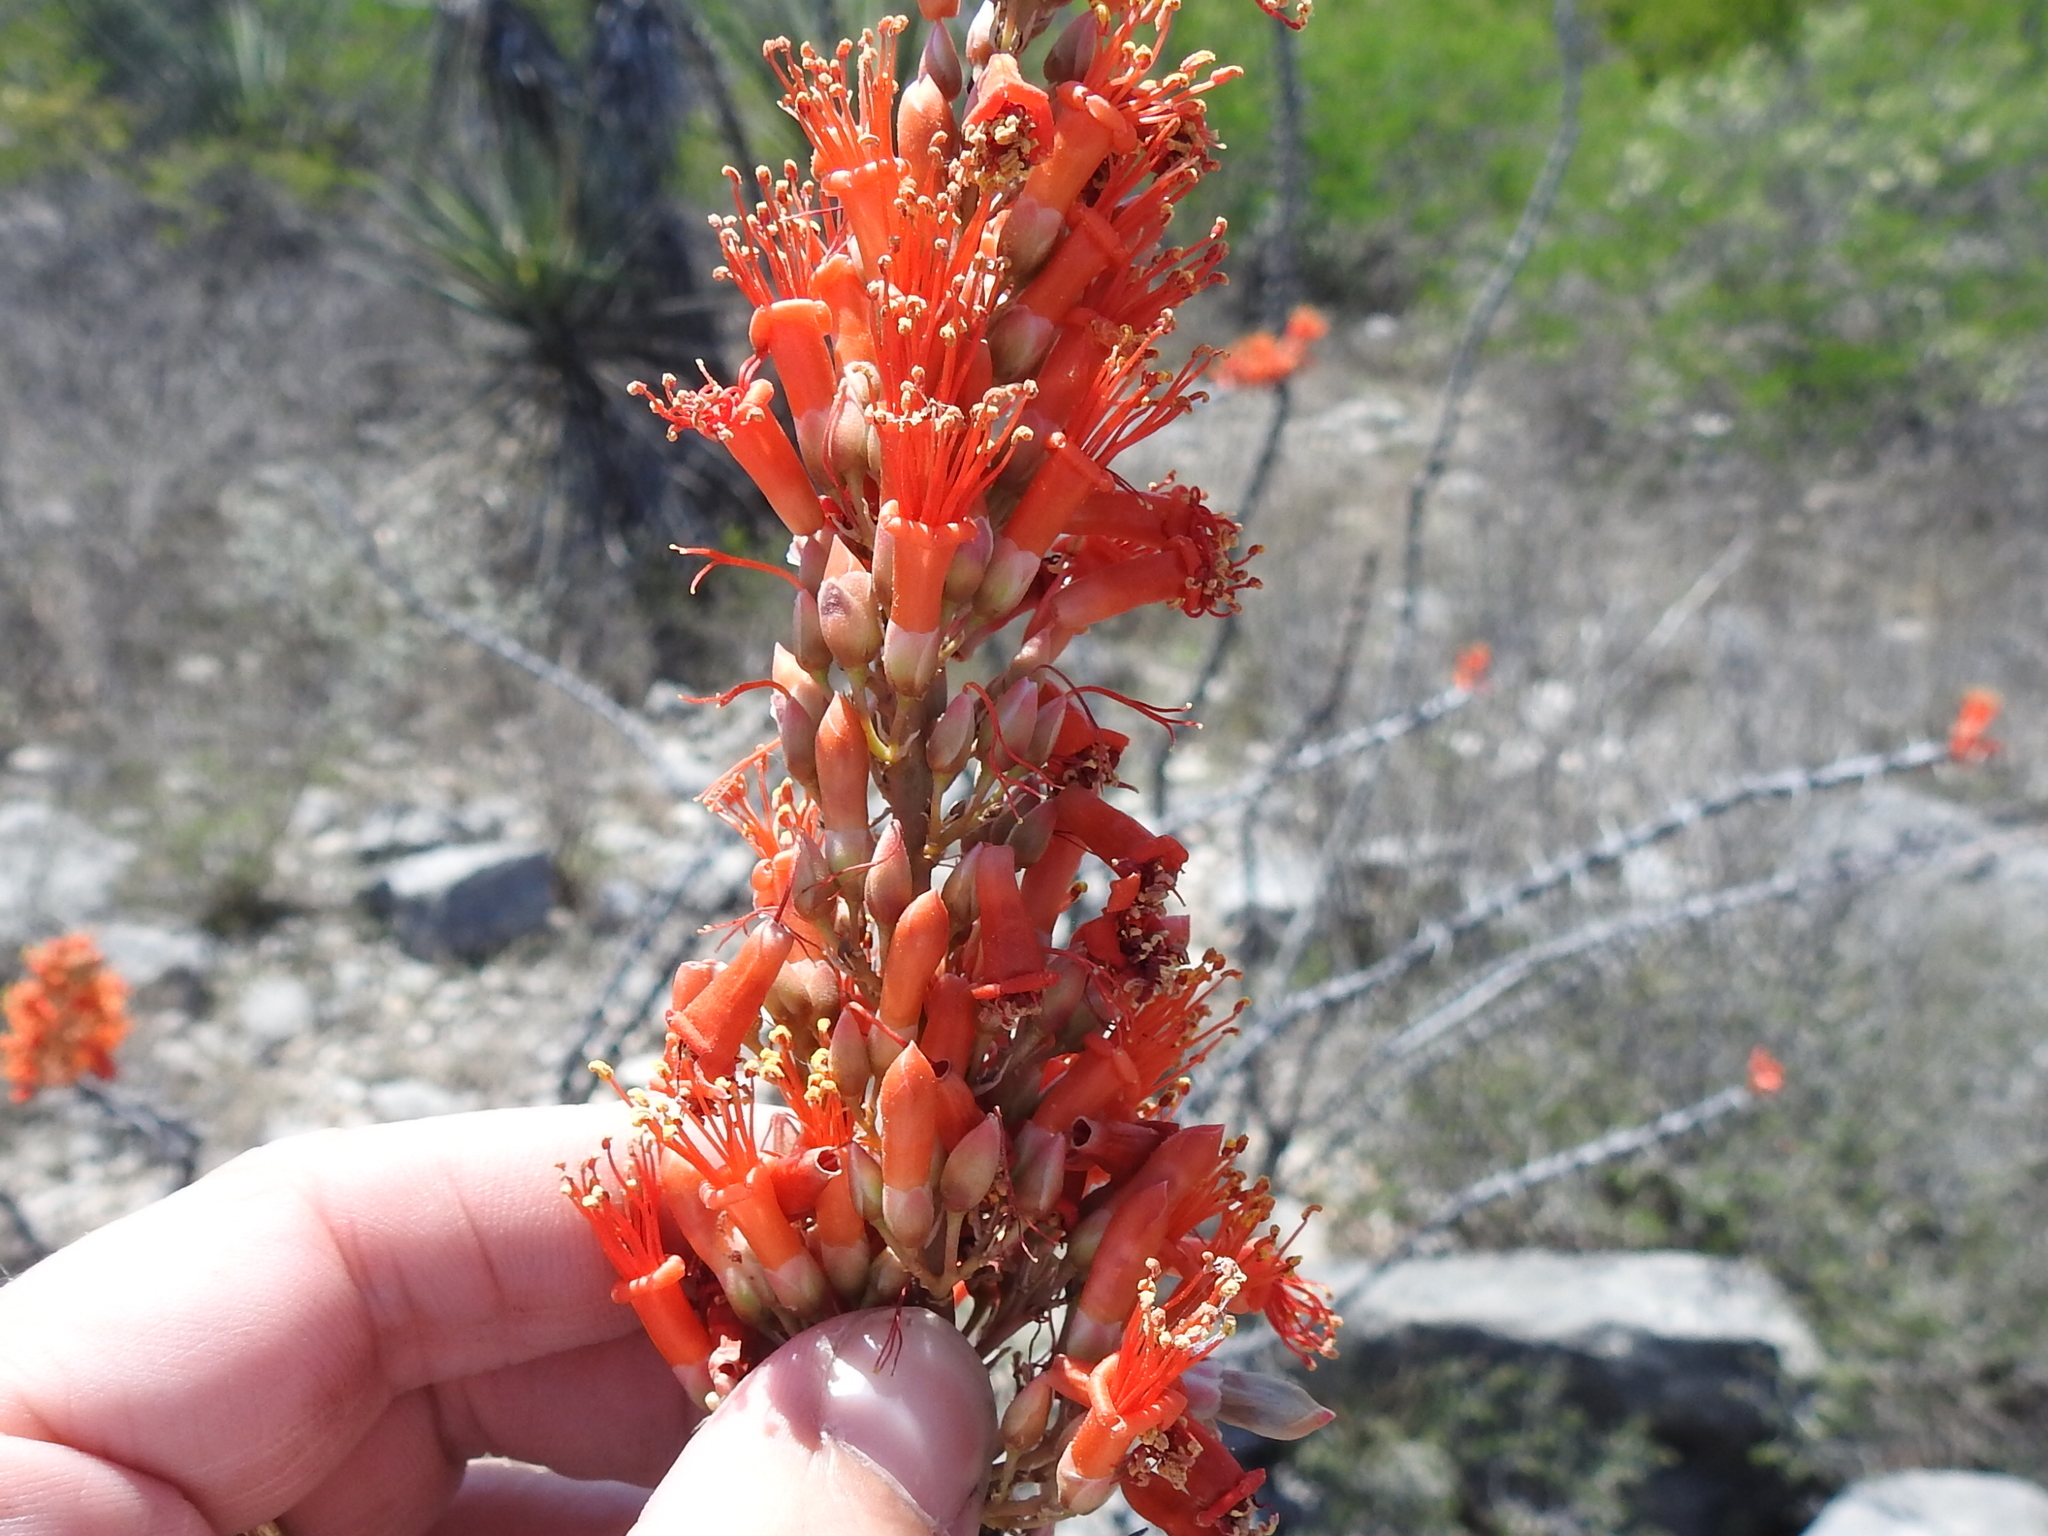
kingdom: Plantae
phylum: Tracheophyta
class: Magnoliopsida
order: Ericales
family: Fouquieriaceae
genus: Fouquieria
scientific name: Fouquieria splendens
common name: Vine-cactus
